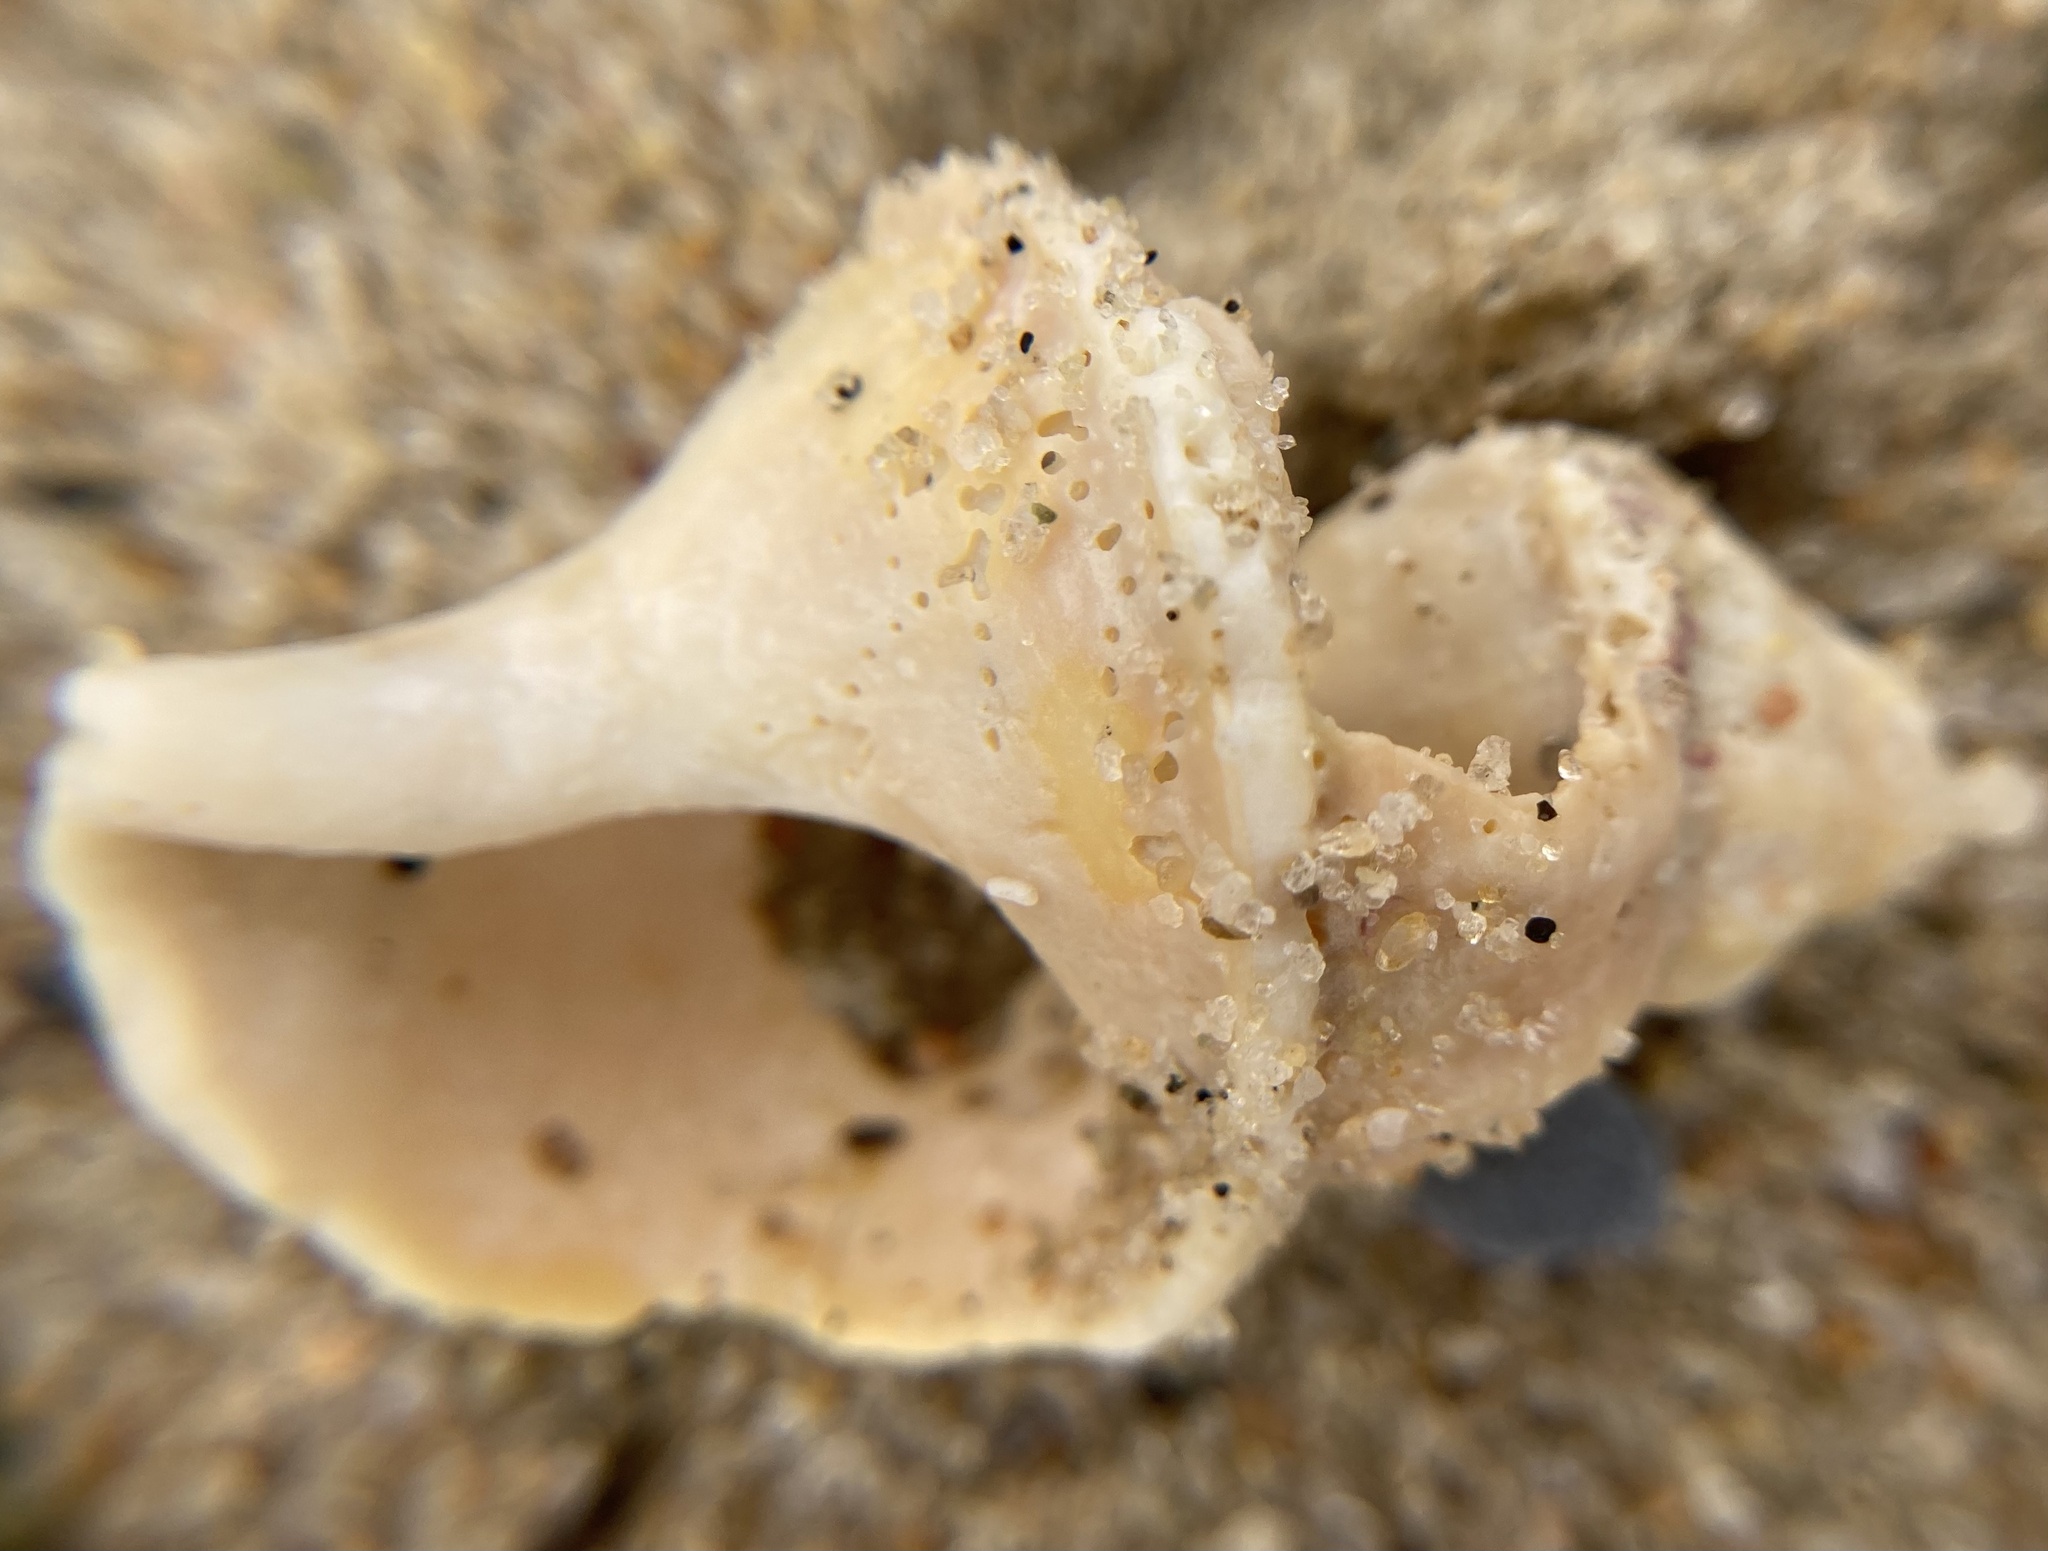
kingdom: Animalia
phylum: Mollusca
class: Gastropoda
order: Neogastropoda
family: Buccinidae
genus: Buccinum
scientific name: Buccinum undatum
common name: Common whelk
